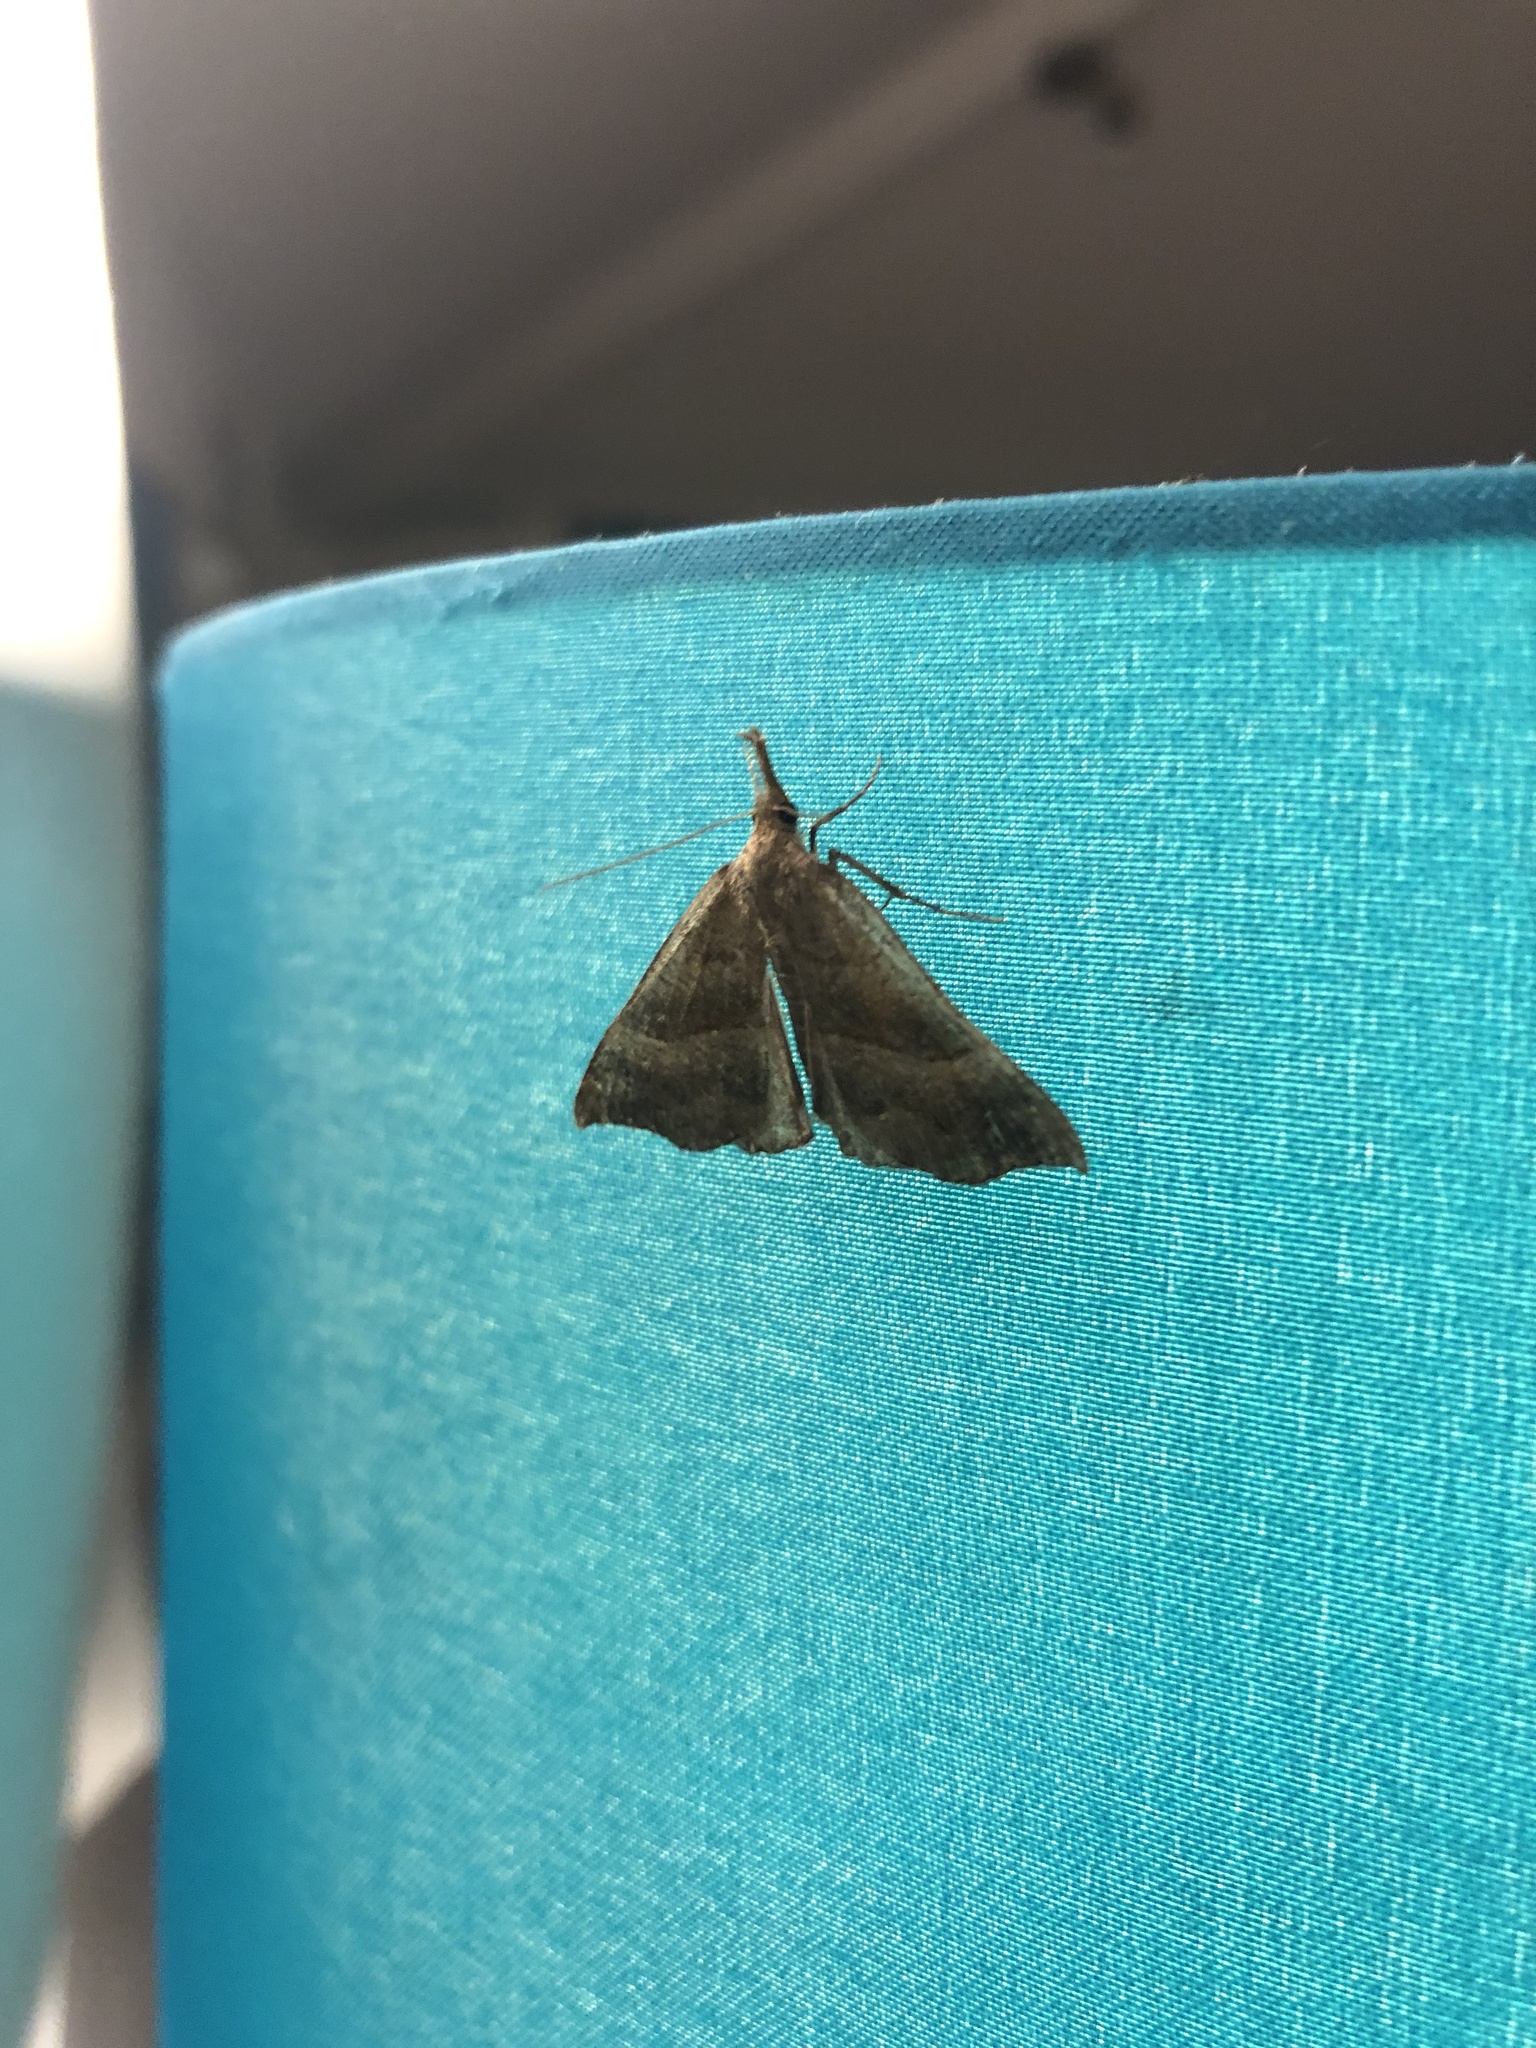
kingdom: Animalia
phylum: Arthropoda
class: Insecta
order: Lepidoptera
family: Erebidae
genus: Hypena
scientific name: Hypena proboscidalis
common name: Snout
